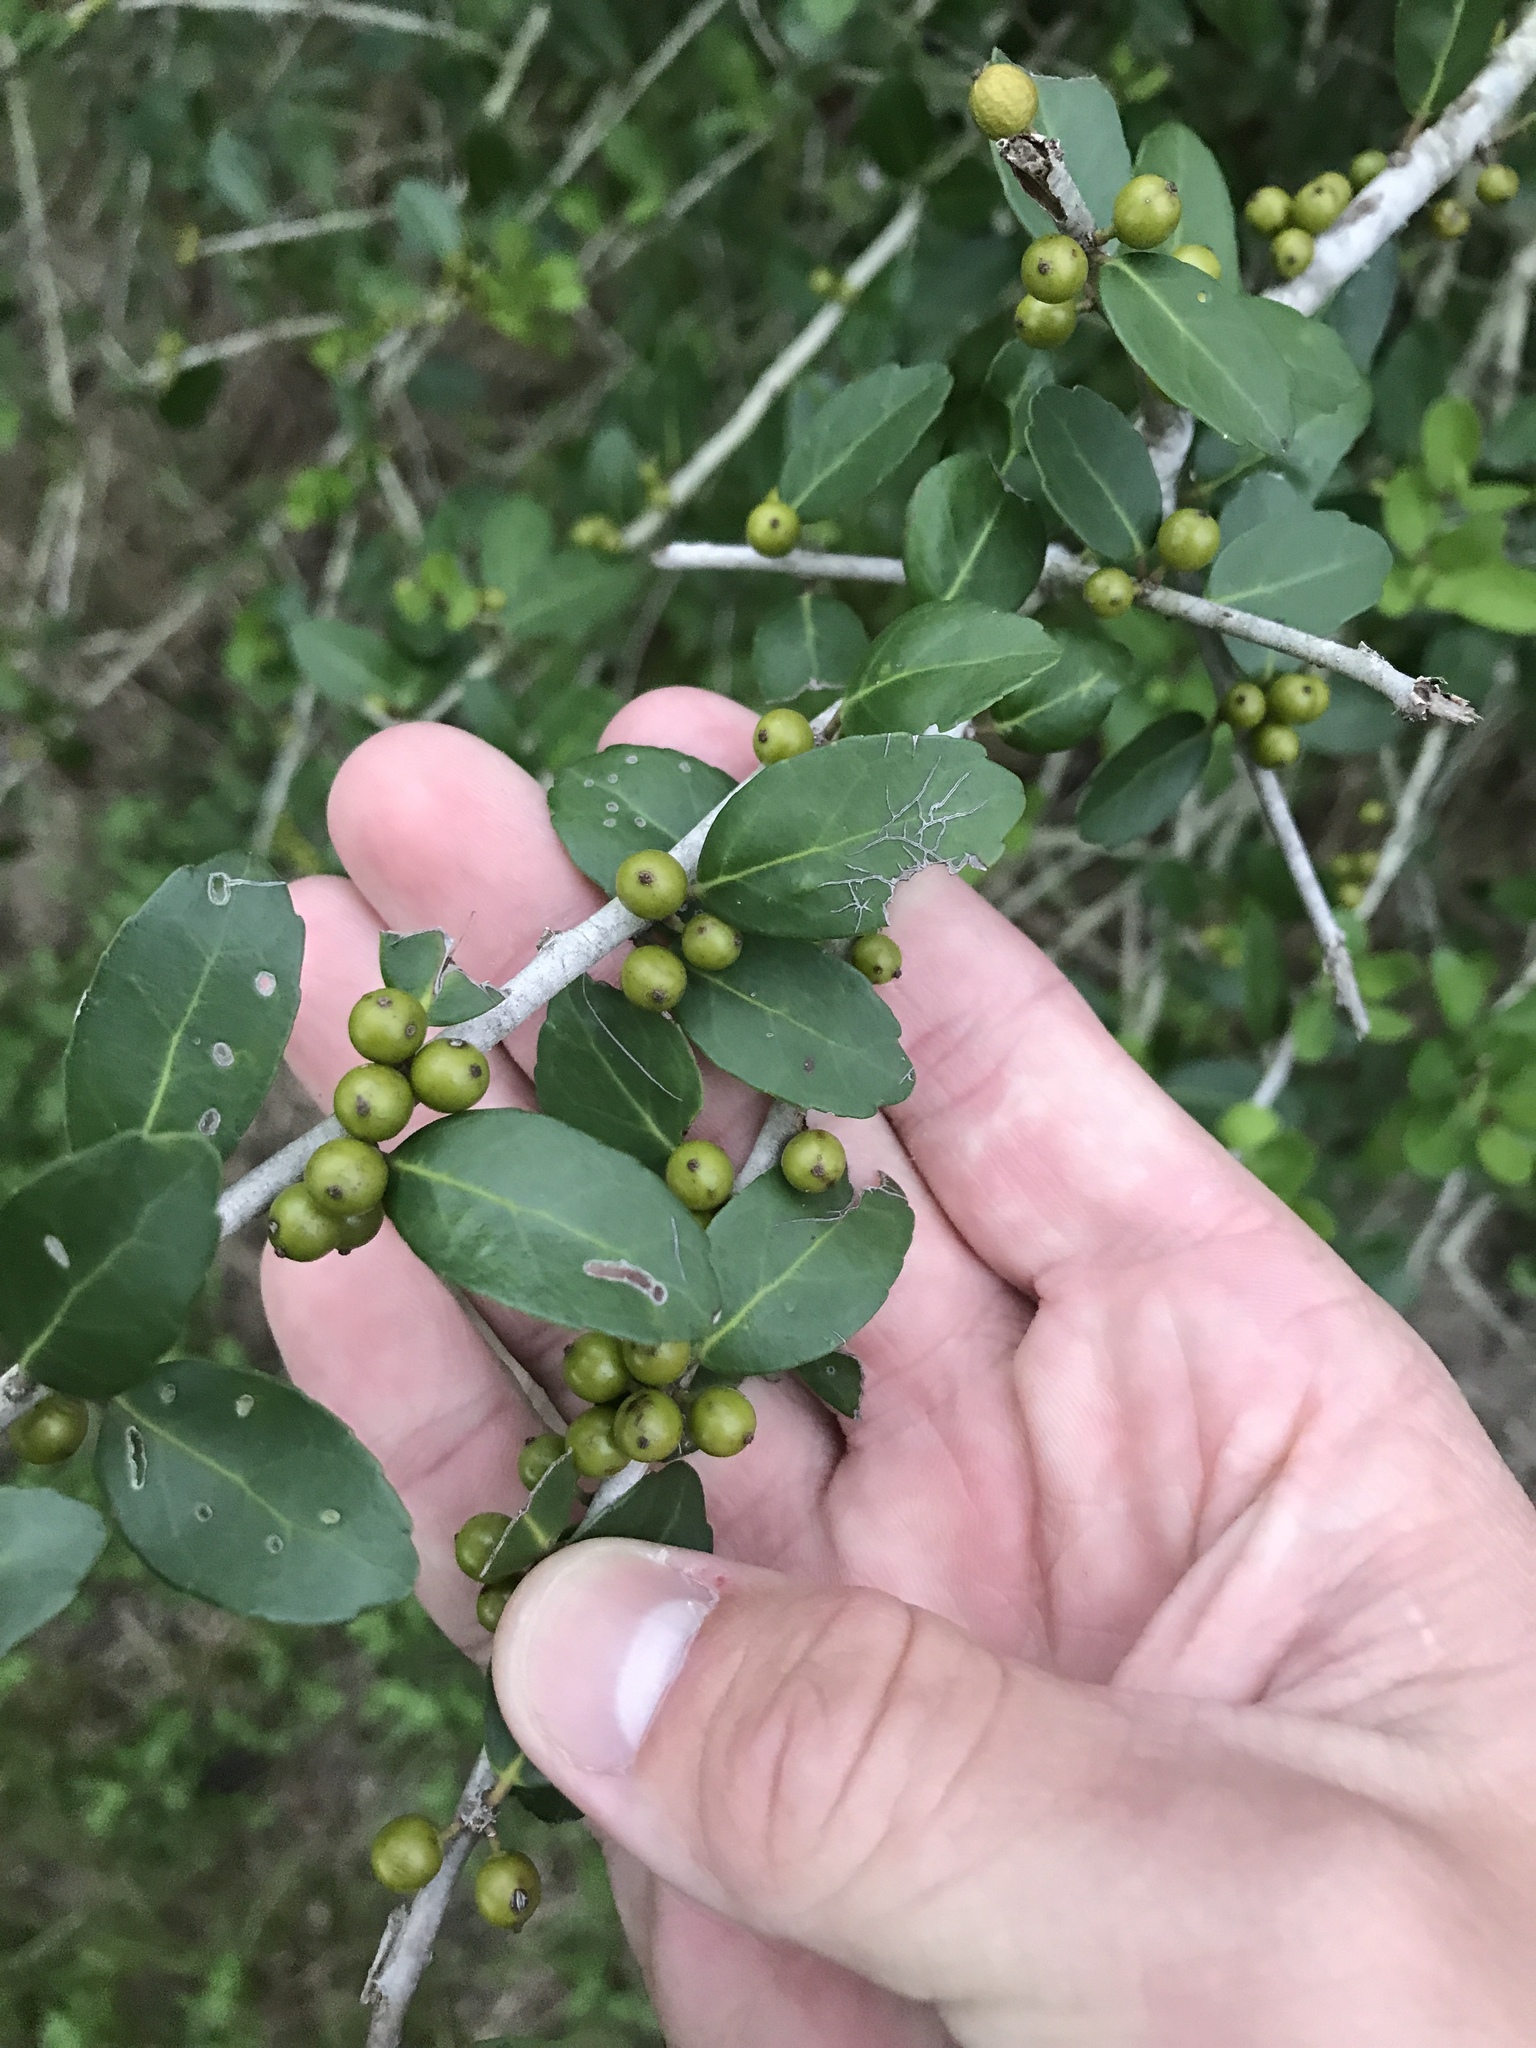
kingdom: Plantae
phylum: Tracheophyta
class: Magnoliopsida
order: Aquifoliales
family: Aquifoliaceae
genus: Ilex
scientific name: Ilex vomitoria
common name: Yaupon holly
